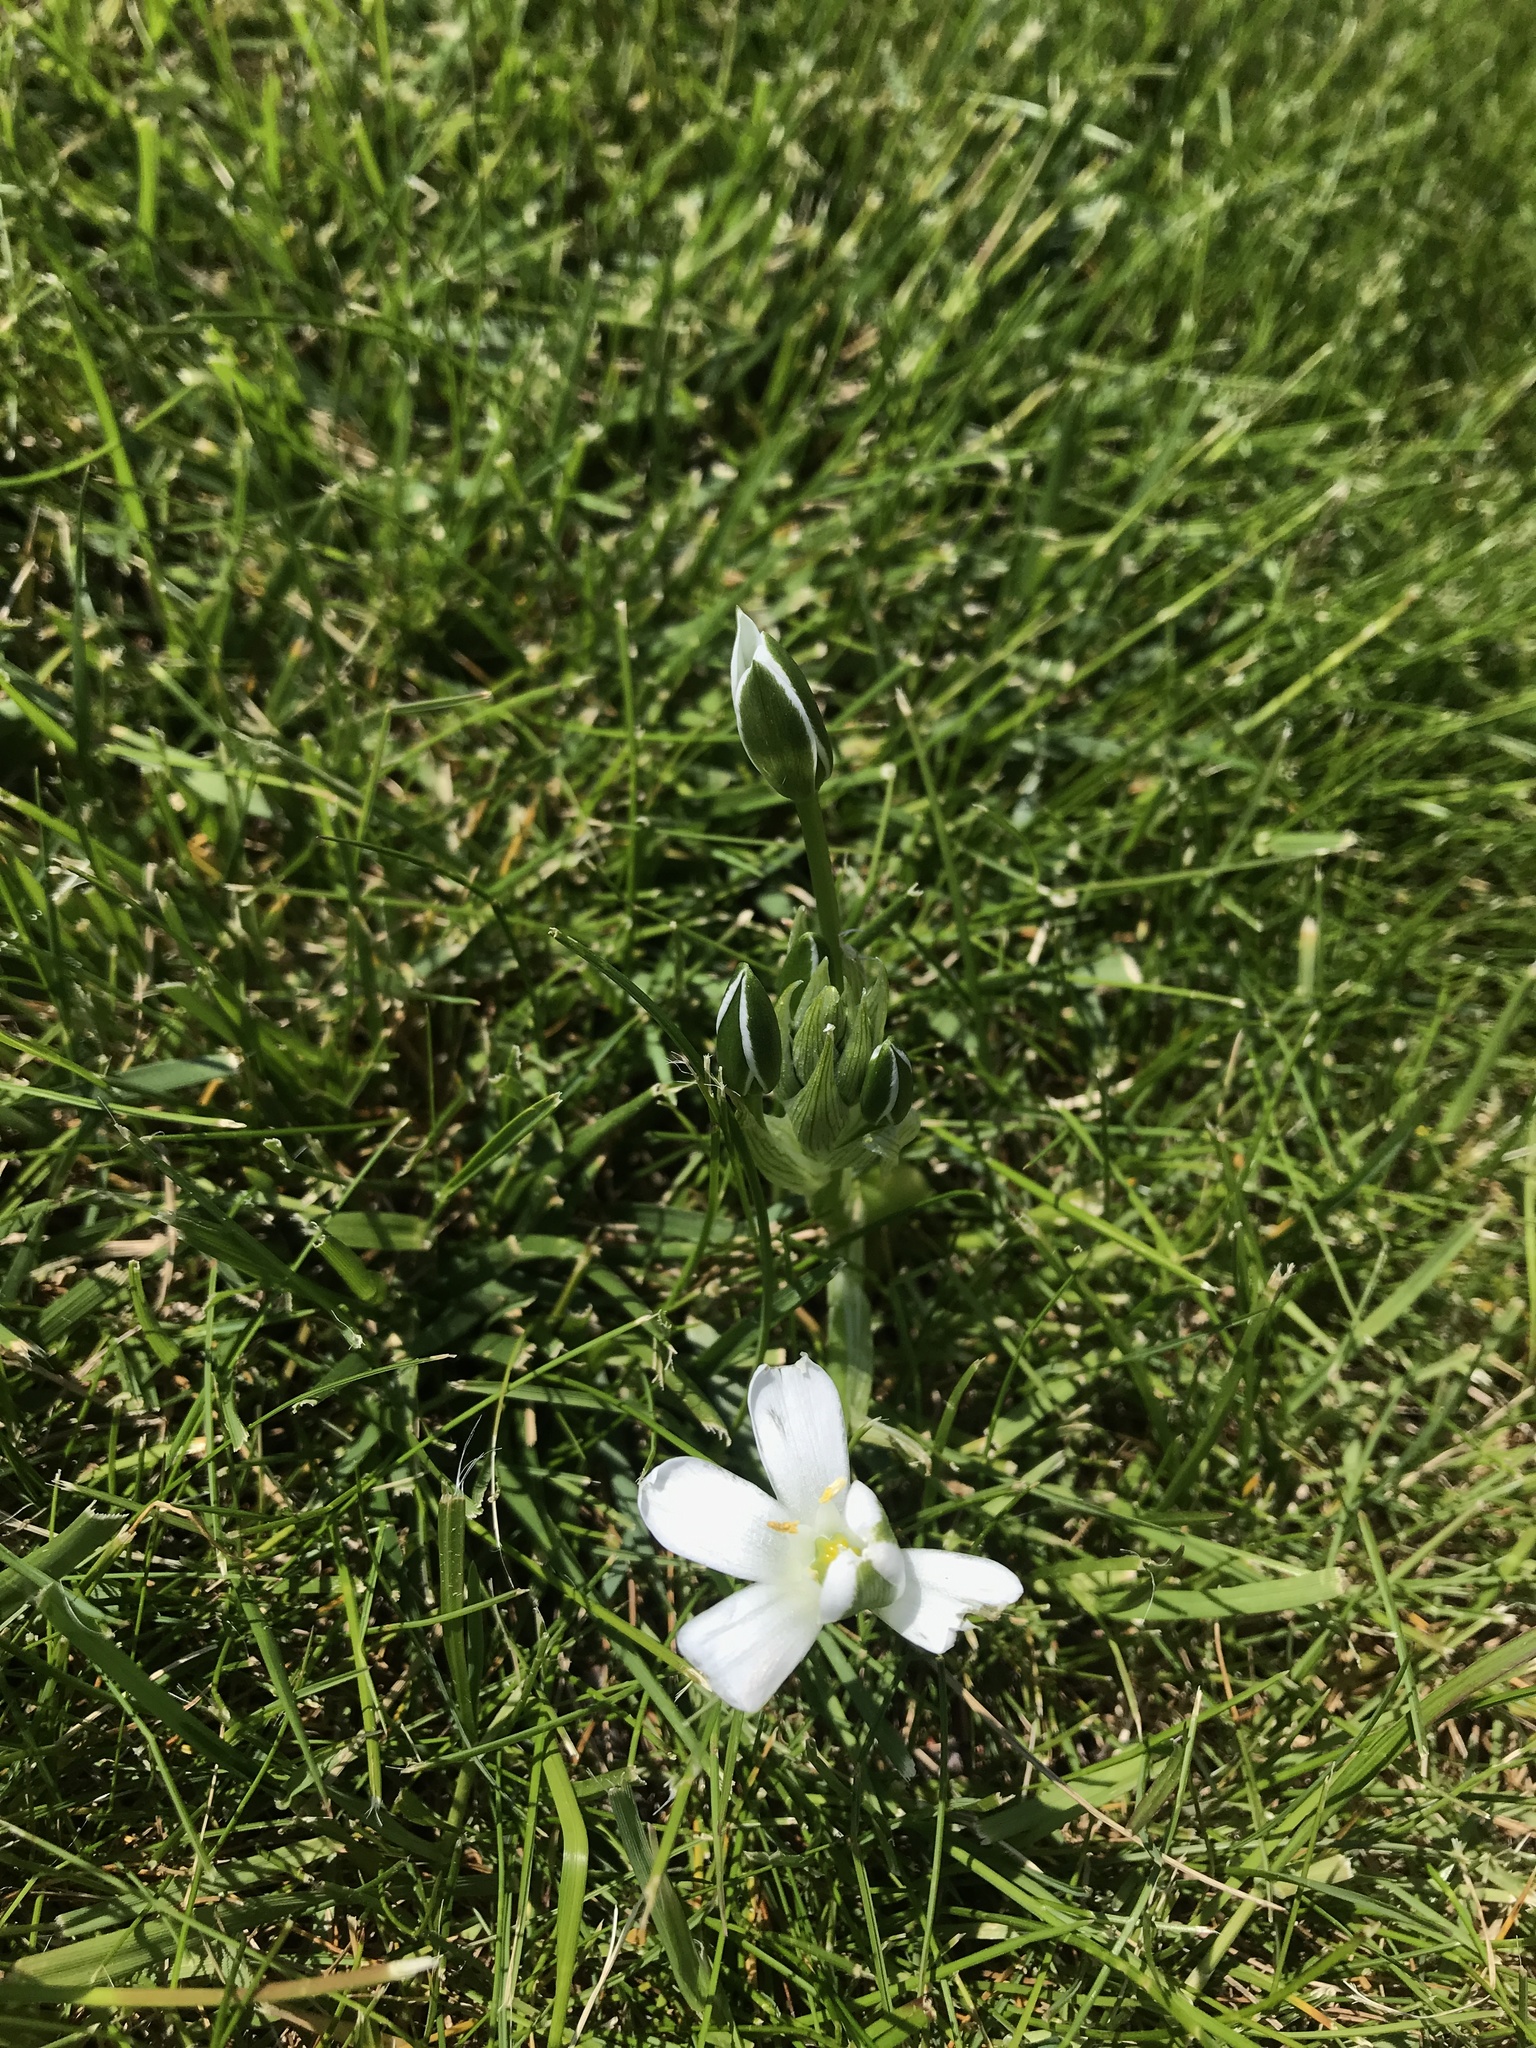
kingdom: Plantae
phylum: Tracheophyta
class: Liliopsida
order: Asparagales
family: Asparagaceae
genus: Ornithogalum
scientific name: Ornithogalum umbellatum
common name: Garden star-of-bethlehem
